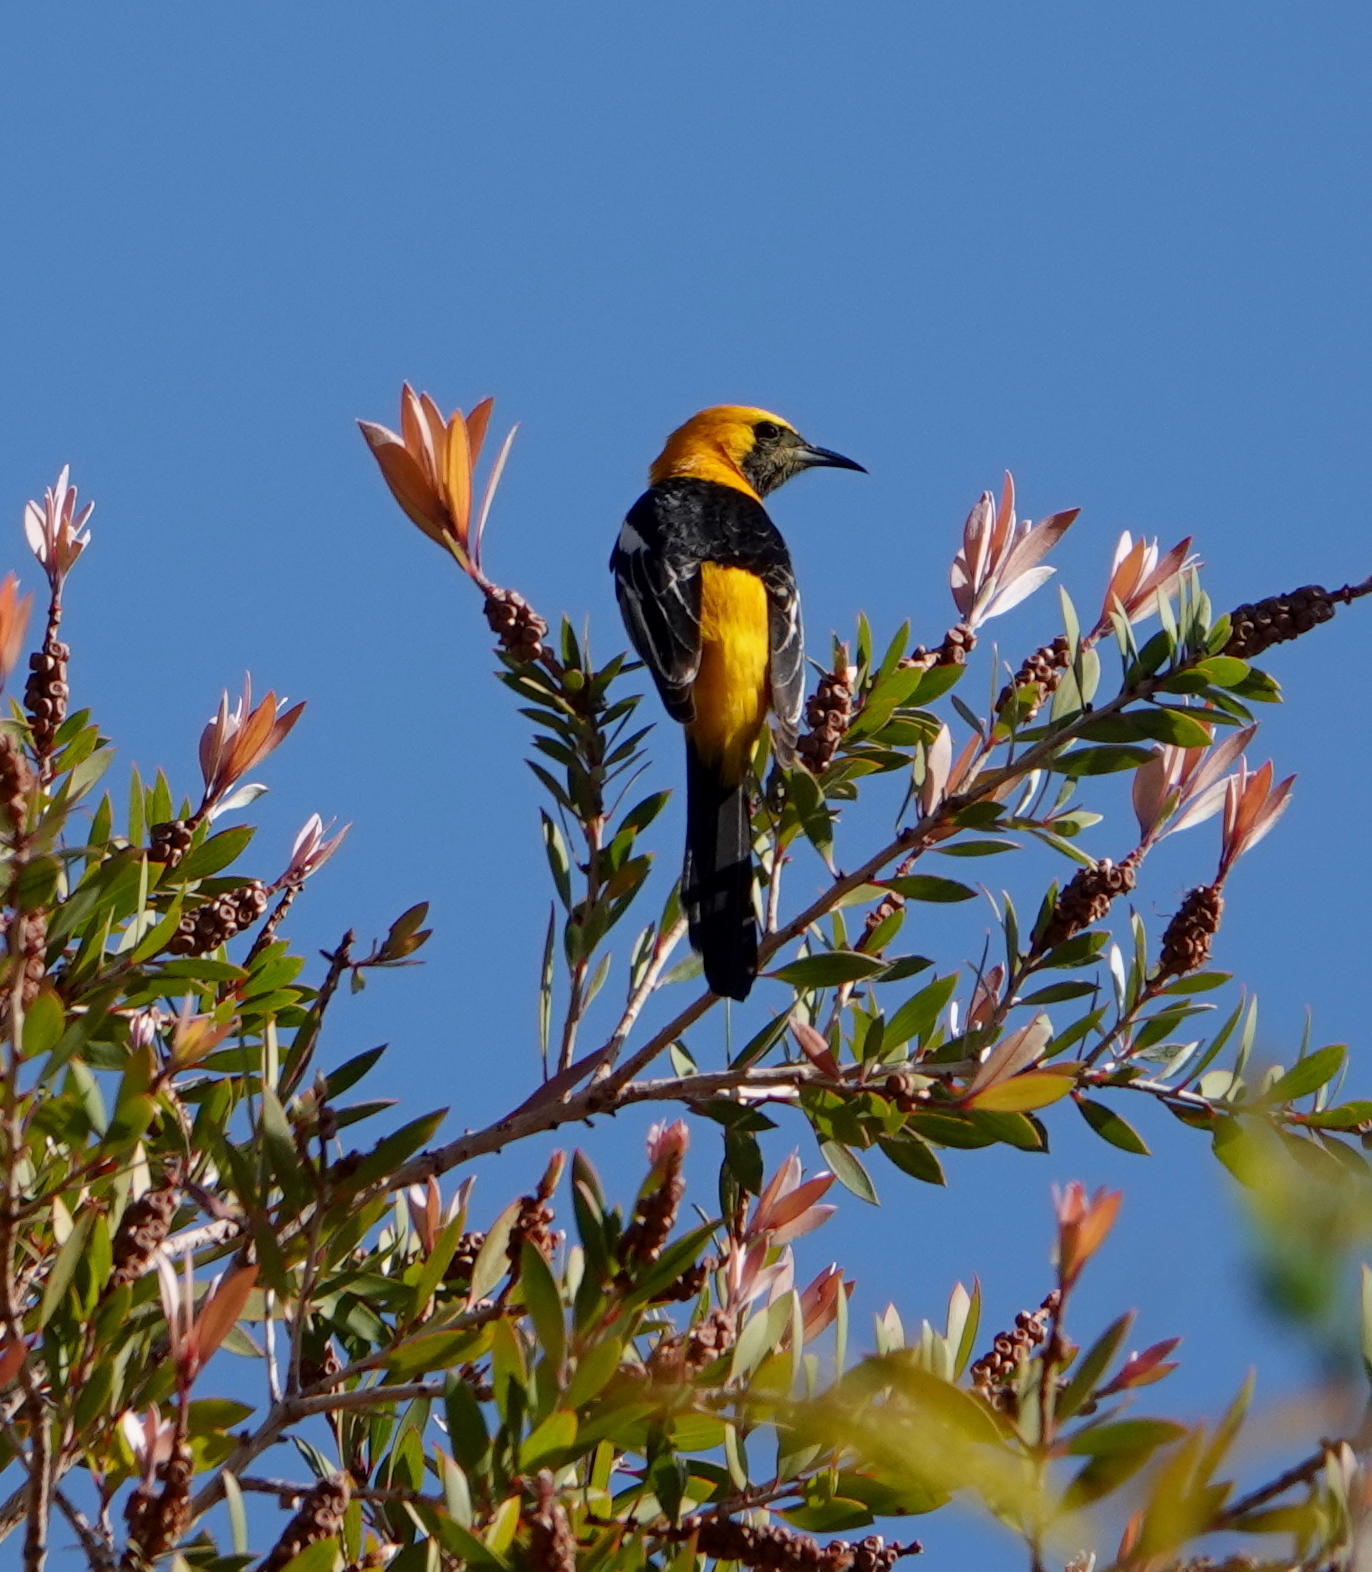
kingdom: Animalia
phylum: Chordata
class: Aves
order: Passeriformes
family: Icteridae
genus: Icterus
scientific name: Icterus cucullatus
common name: Hooded oriole
